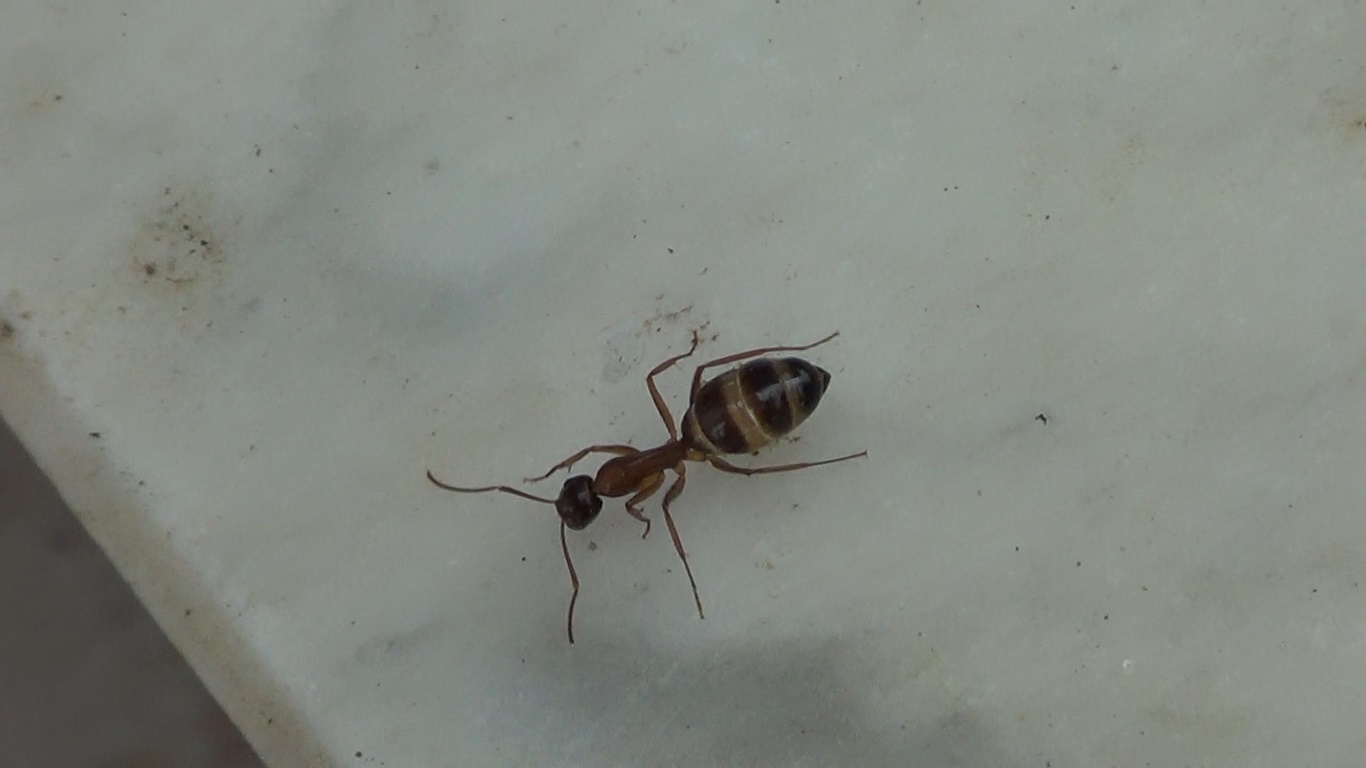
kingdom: Animalia
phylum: Arthropoda
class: Insecta
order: Hymenoptera
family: Formicidae
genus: Camponotus
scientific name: Camponotus nylanderi
